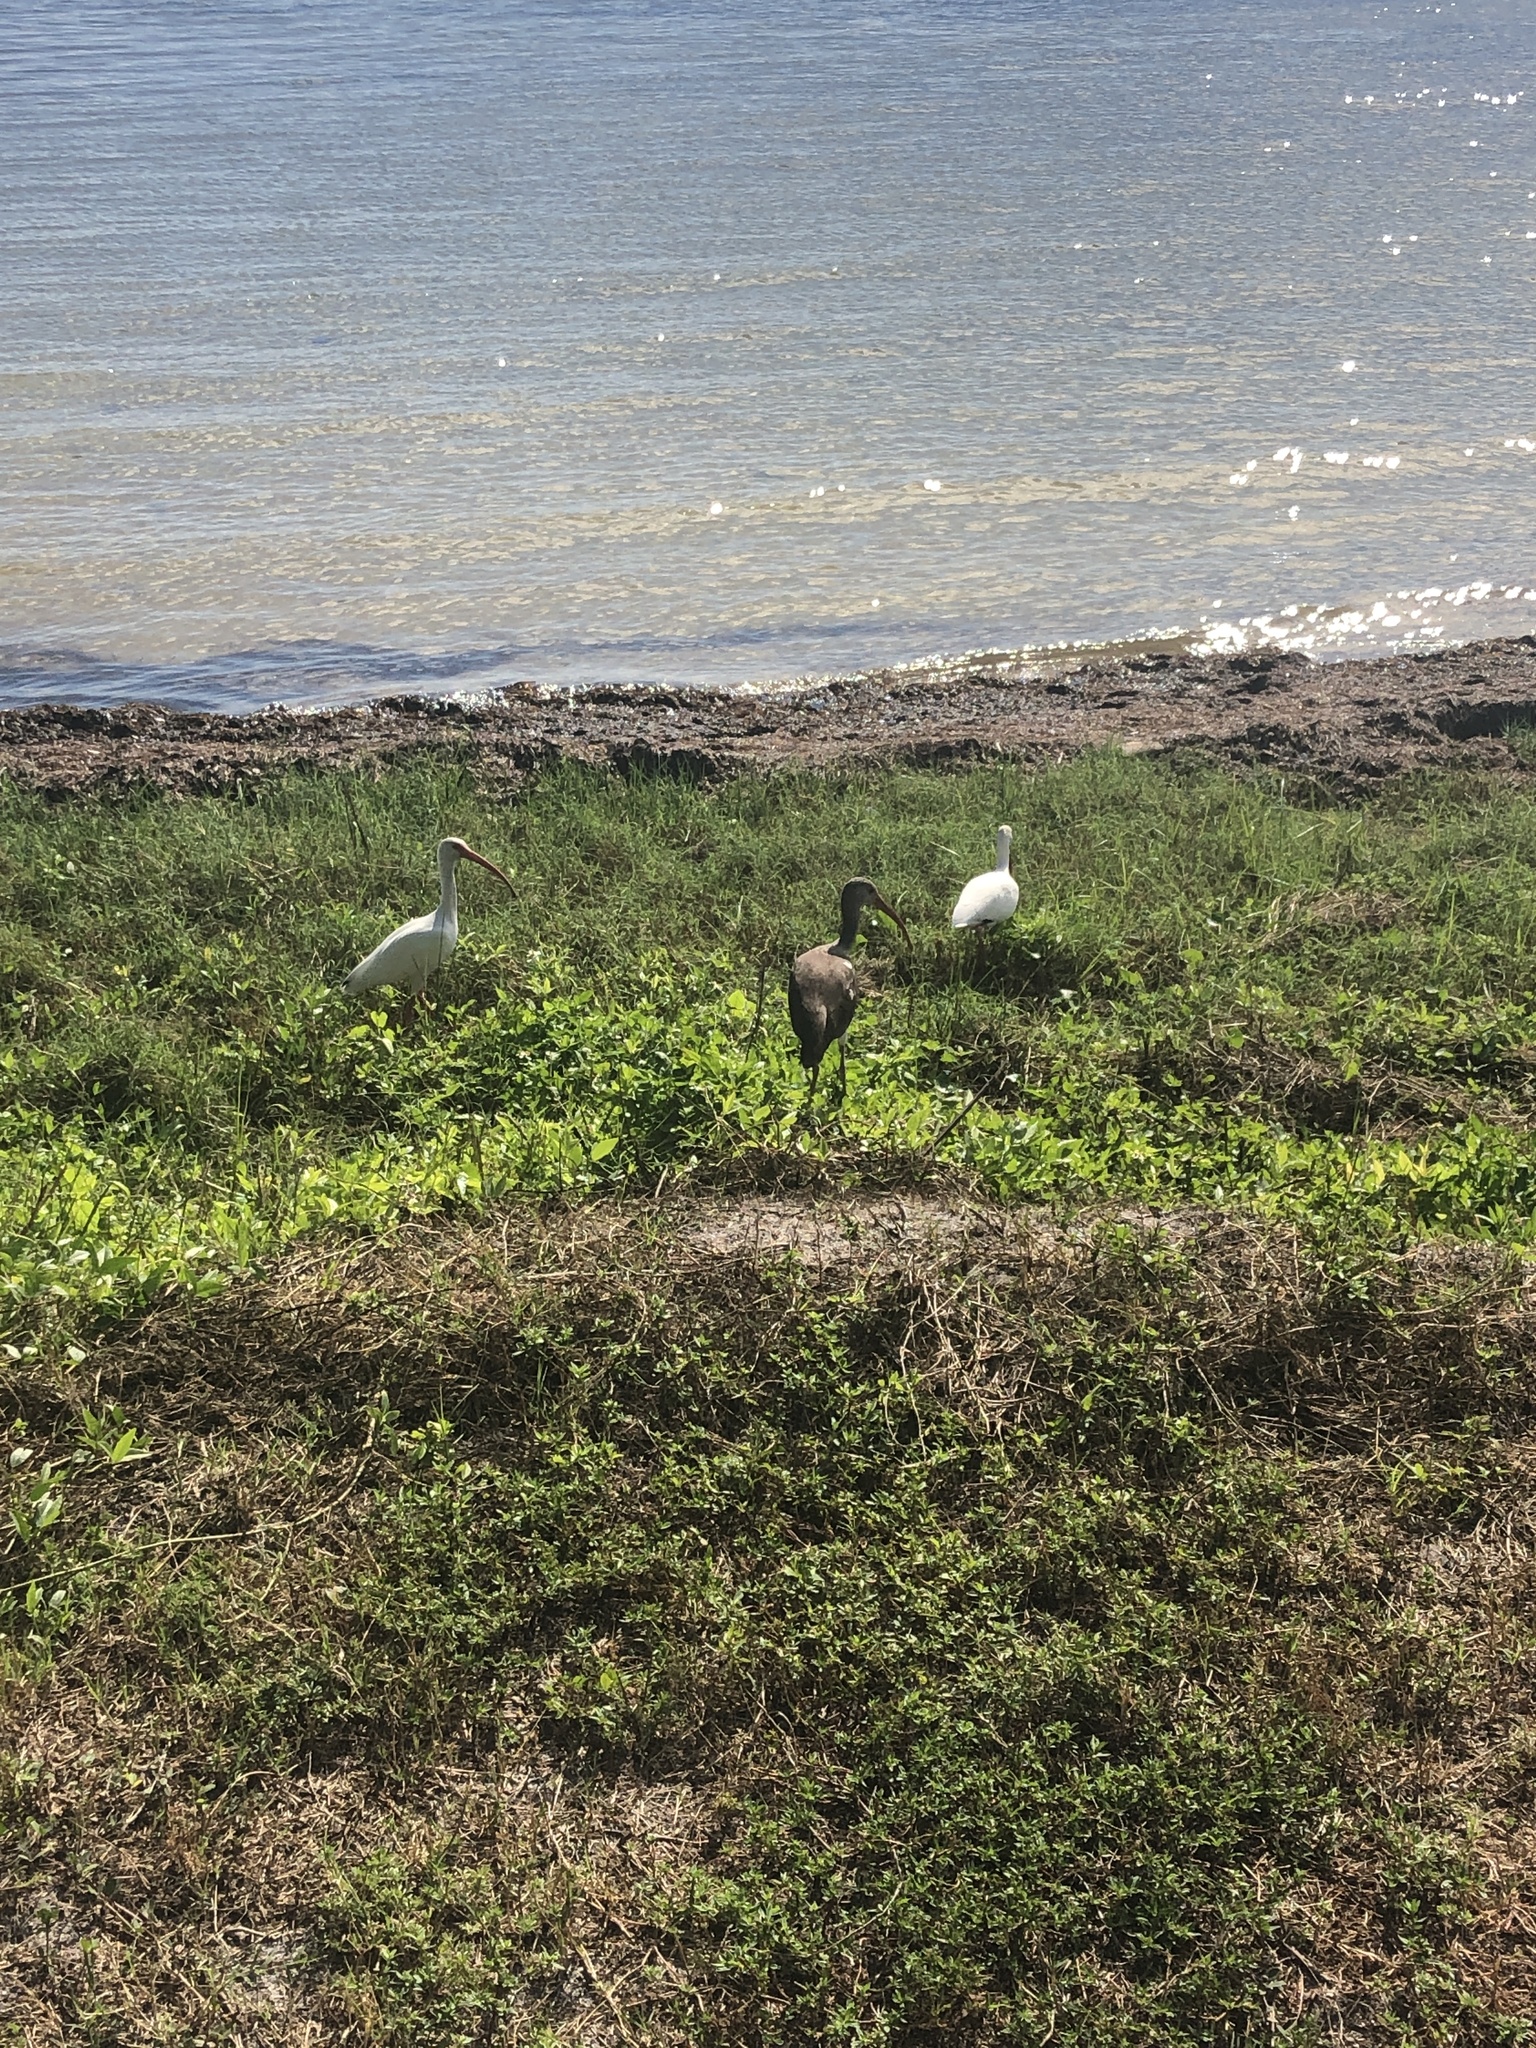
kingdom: Animalia
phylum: Chordata
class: Aves
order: Pelecaniformes
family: Threskiornithidae
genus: Eudocimus
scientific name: Eudocimus albus
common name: White ibis
